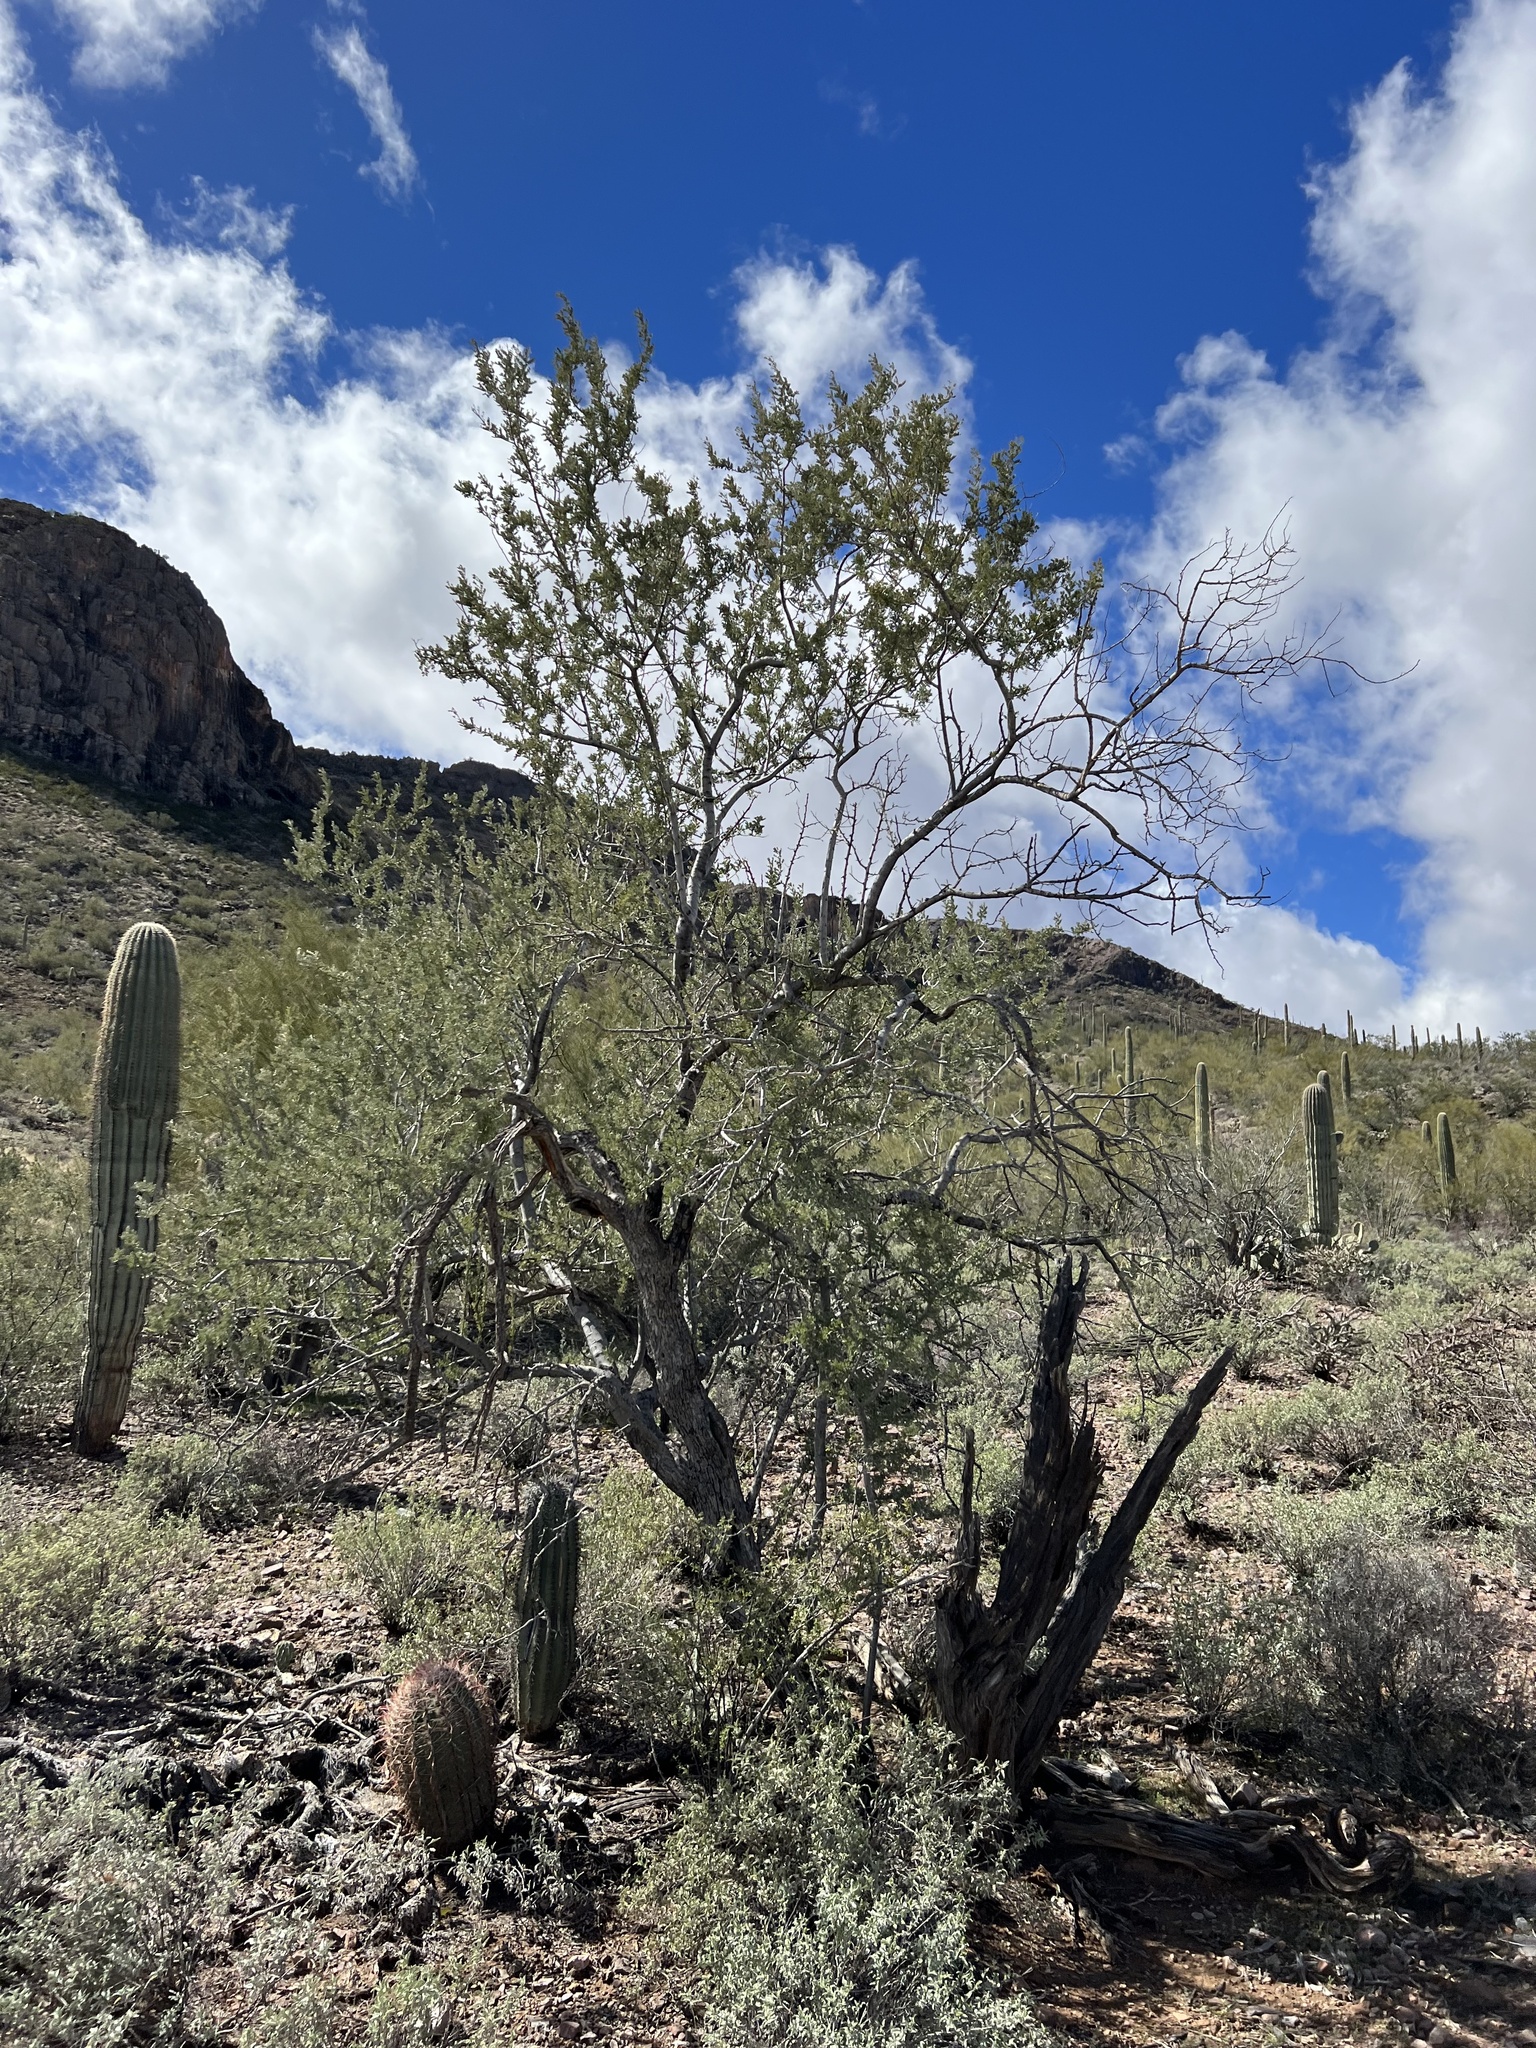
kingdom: Plantae
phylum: Tracheophyta
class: Magnoliopsida
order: Fabales
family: Fabaceae
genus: Olneya
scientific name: Olneya tesota
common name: Desert ironwood
